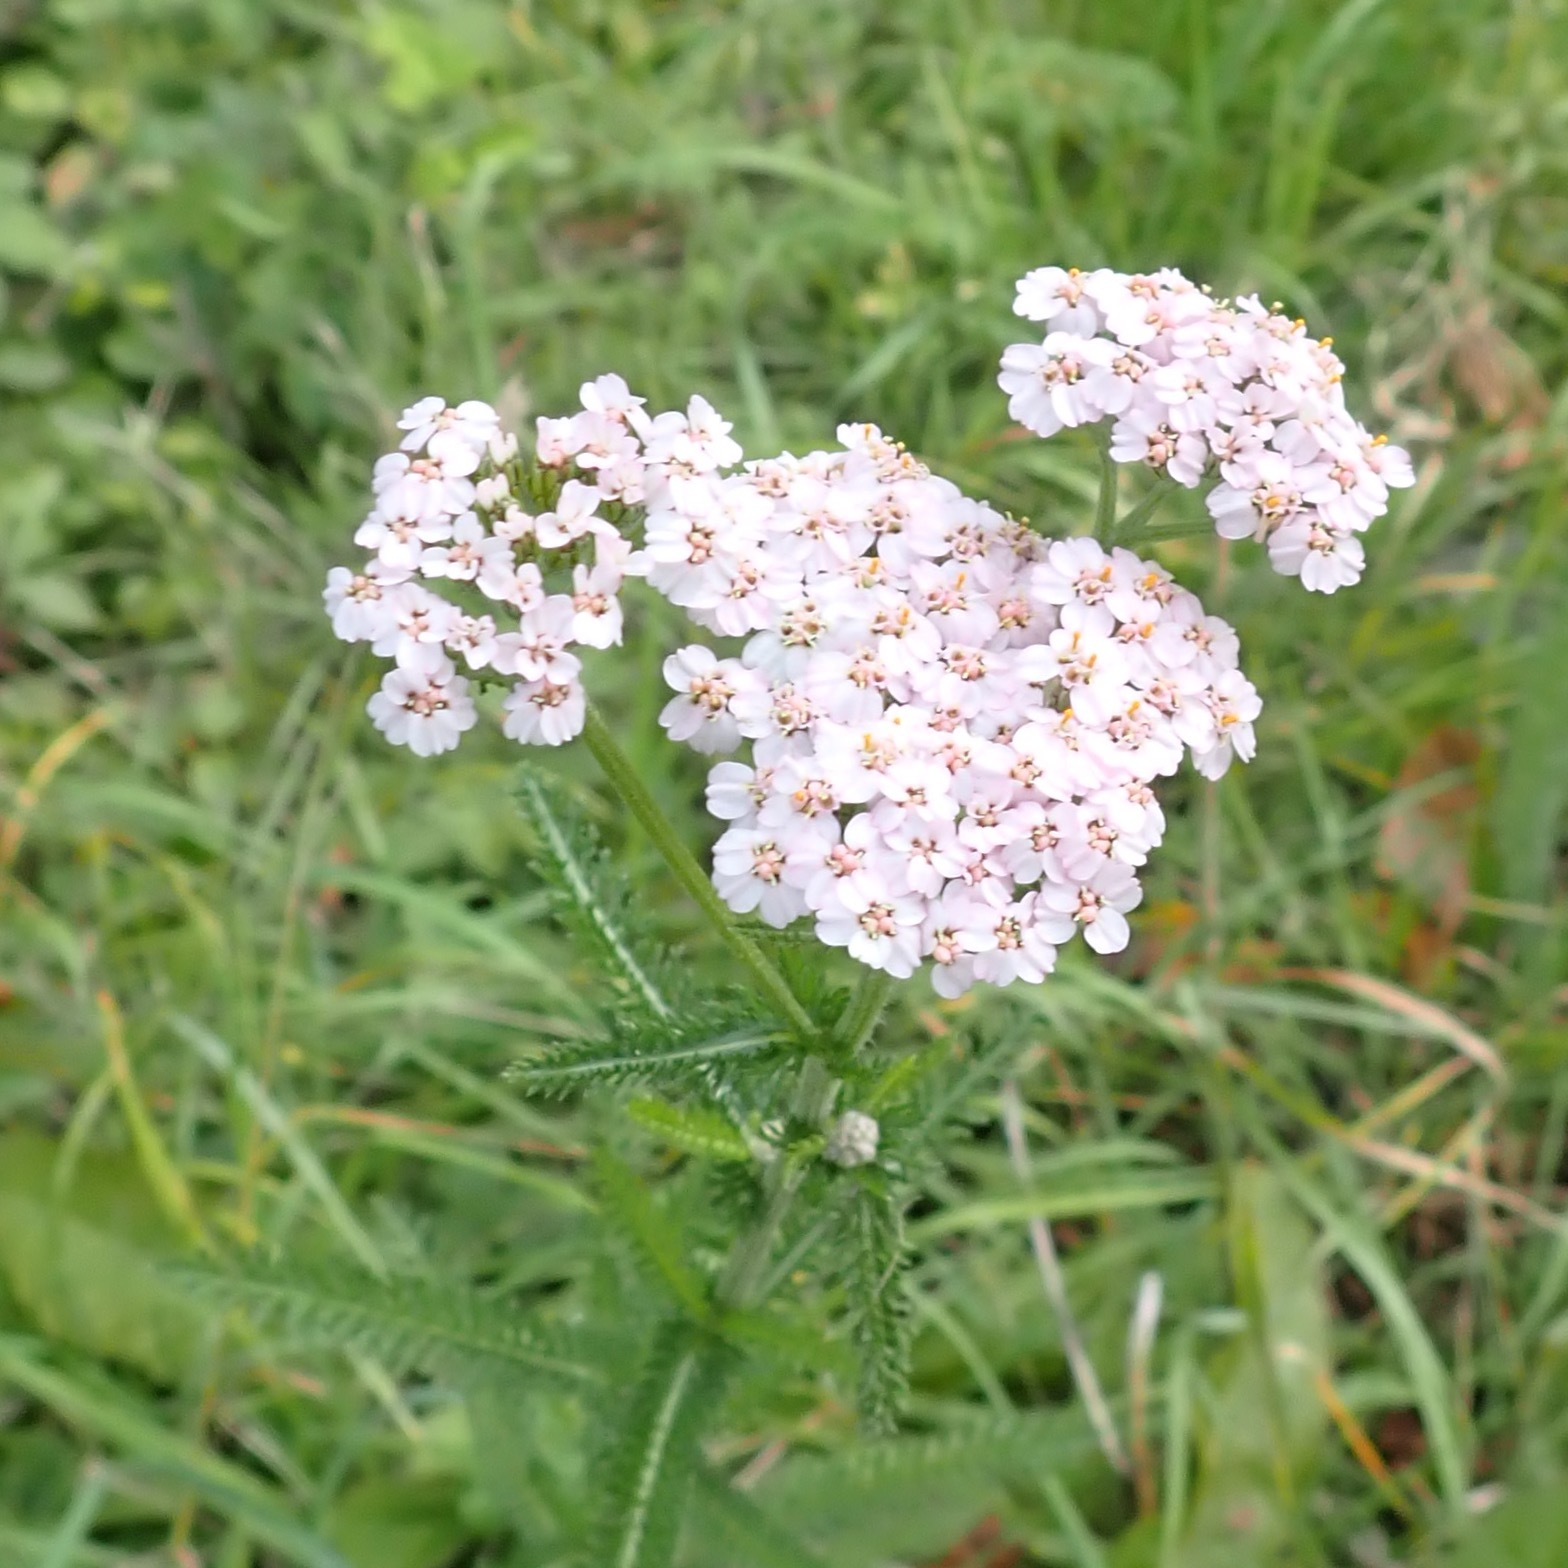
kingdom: Plantae
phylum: Tracheophyta
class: Magnoliopsida
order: Asterales
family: Asteraceae
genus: Achillea
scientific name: Achillea millefolium
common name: Yarrow
